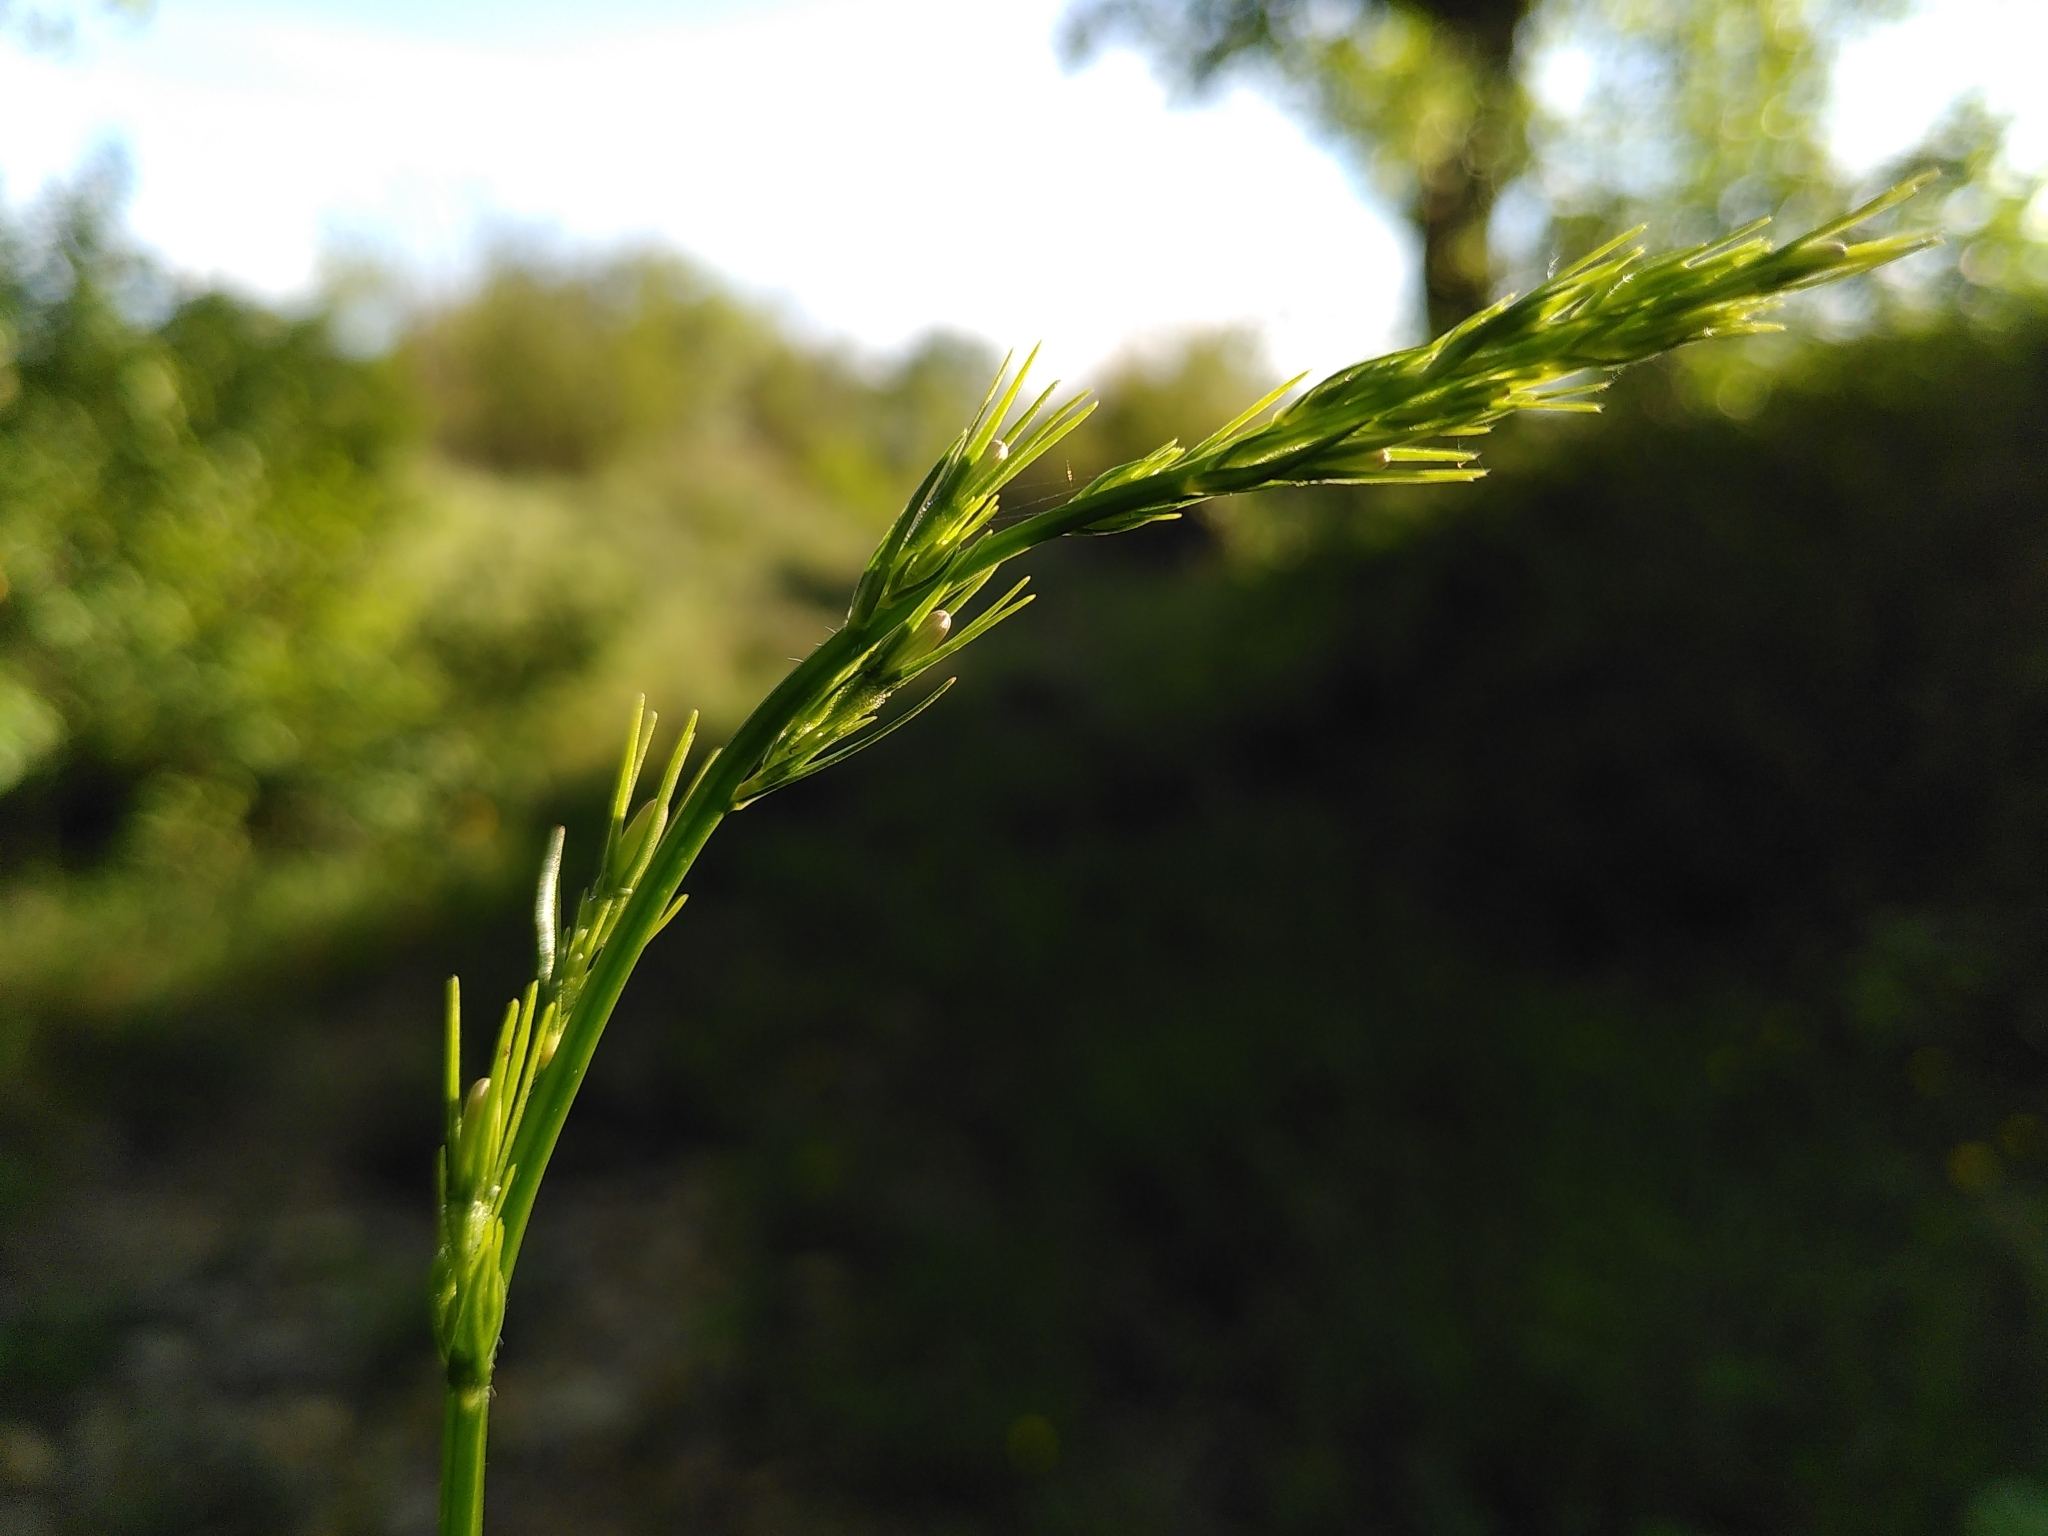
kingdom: Plantae
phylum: Tracheophyta
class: Magnoliopsida
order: Asterales
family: Campanulaceae
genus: Campanula
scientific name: Campanula rapunculus
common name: Rampion bellflower
